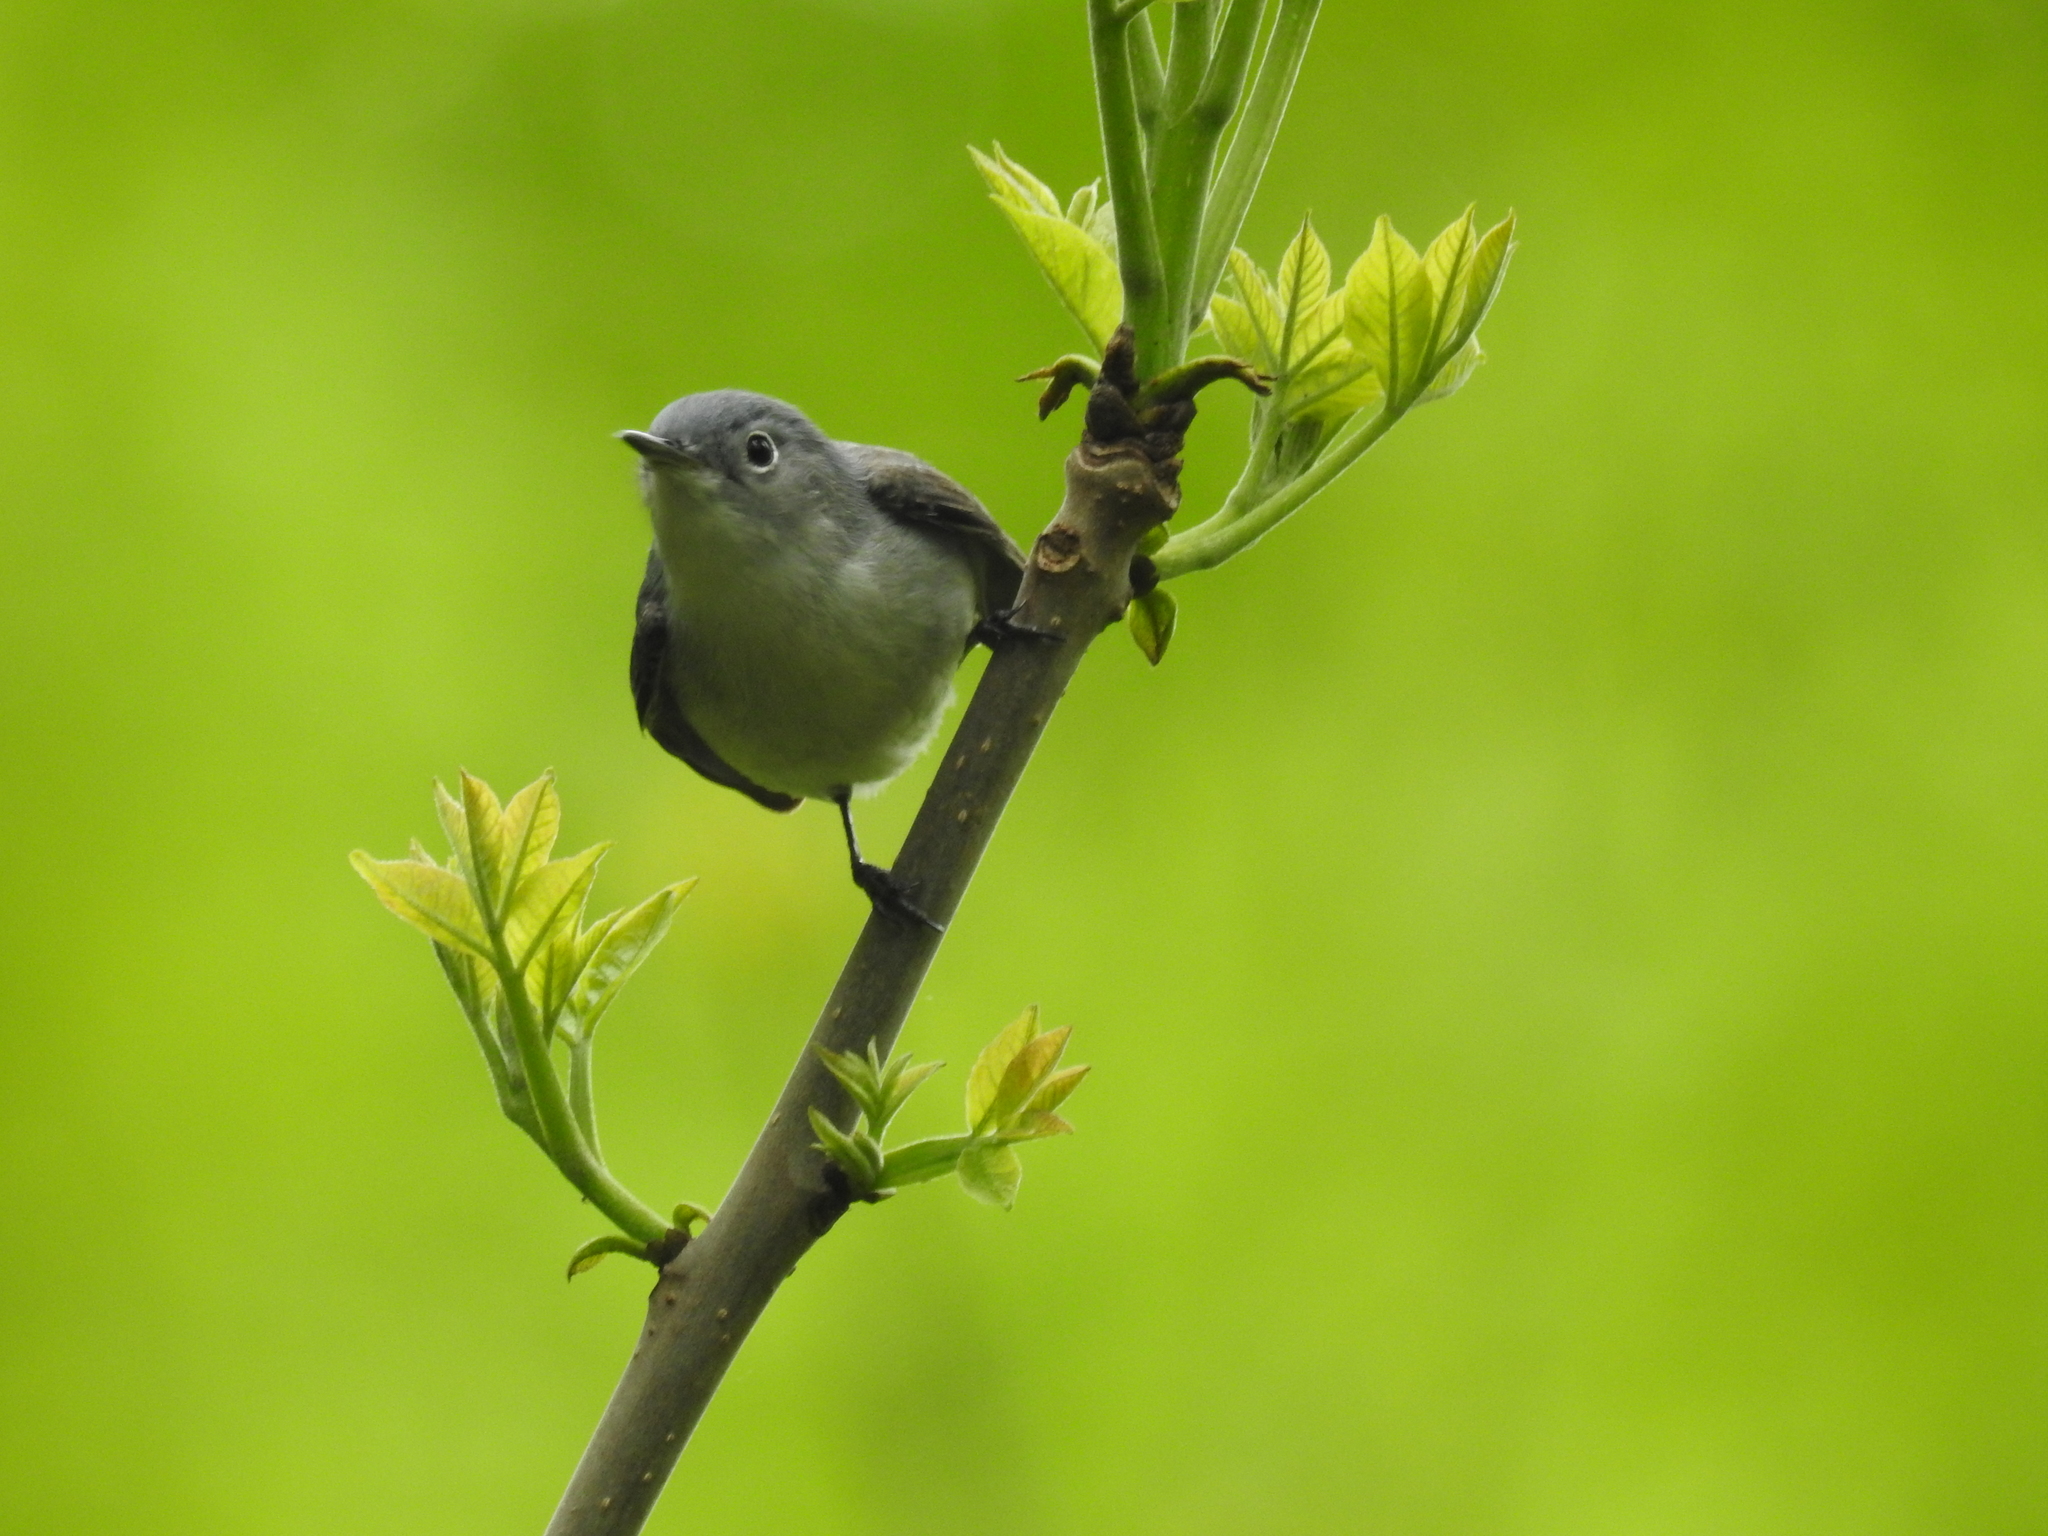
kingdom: Animalia
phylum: Chordata
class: Aves
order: Passeriformes
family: Polioptilidae
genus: Polioptila
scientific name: Polioptila caerulea
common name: Blue-gray gnatcatcher
